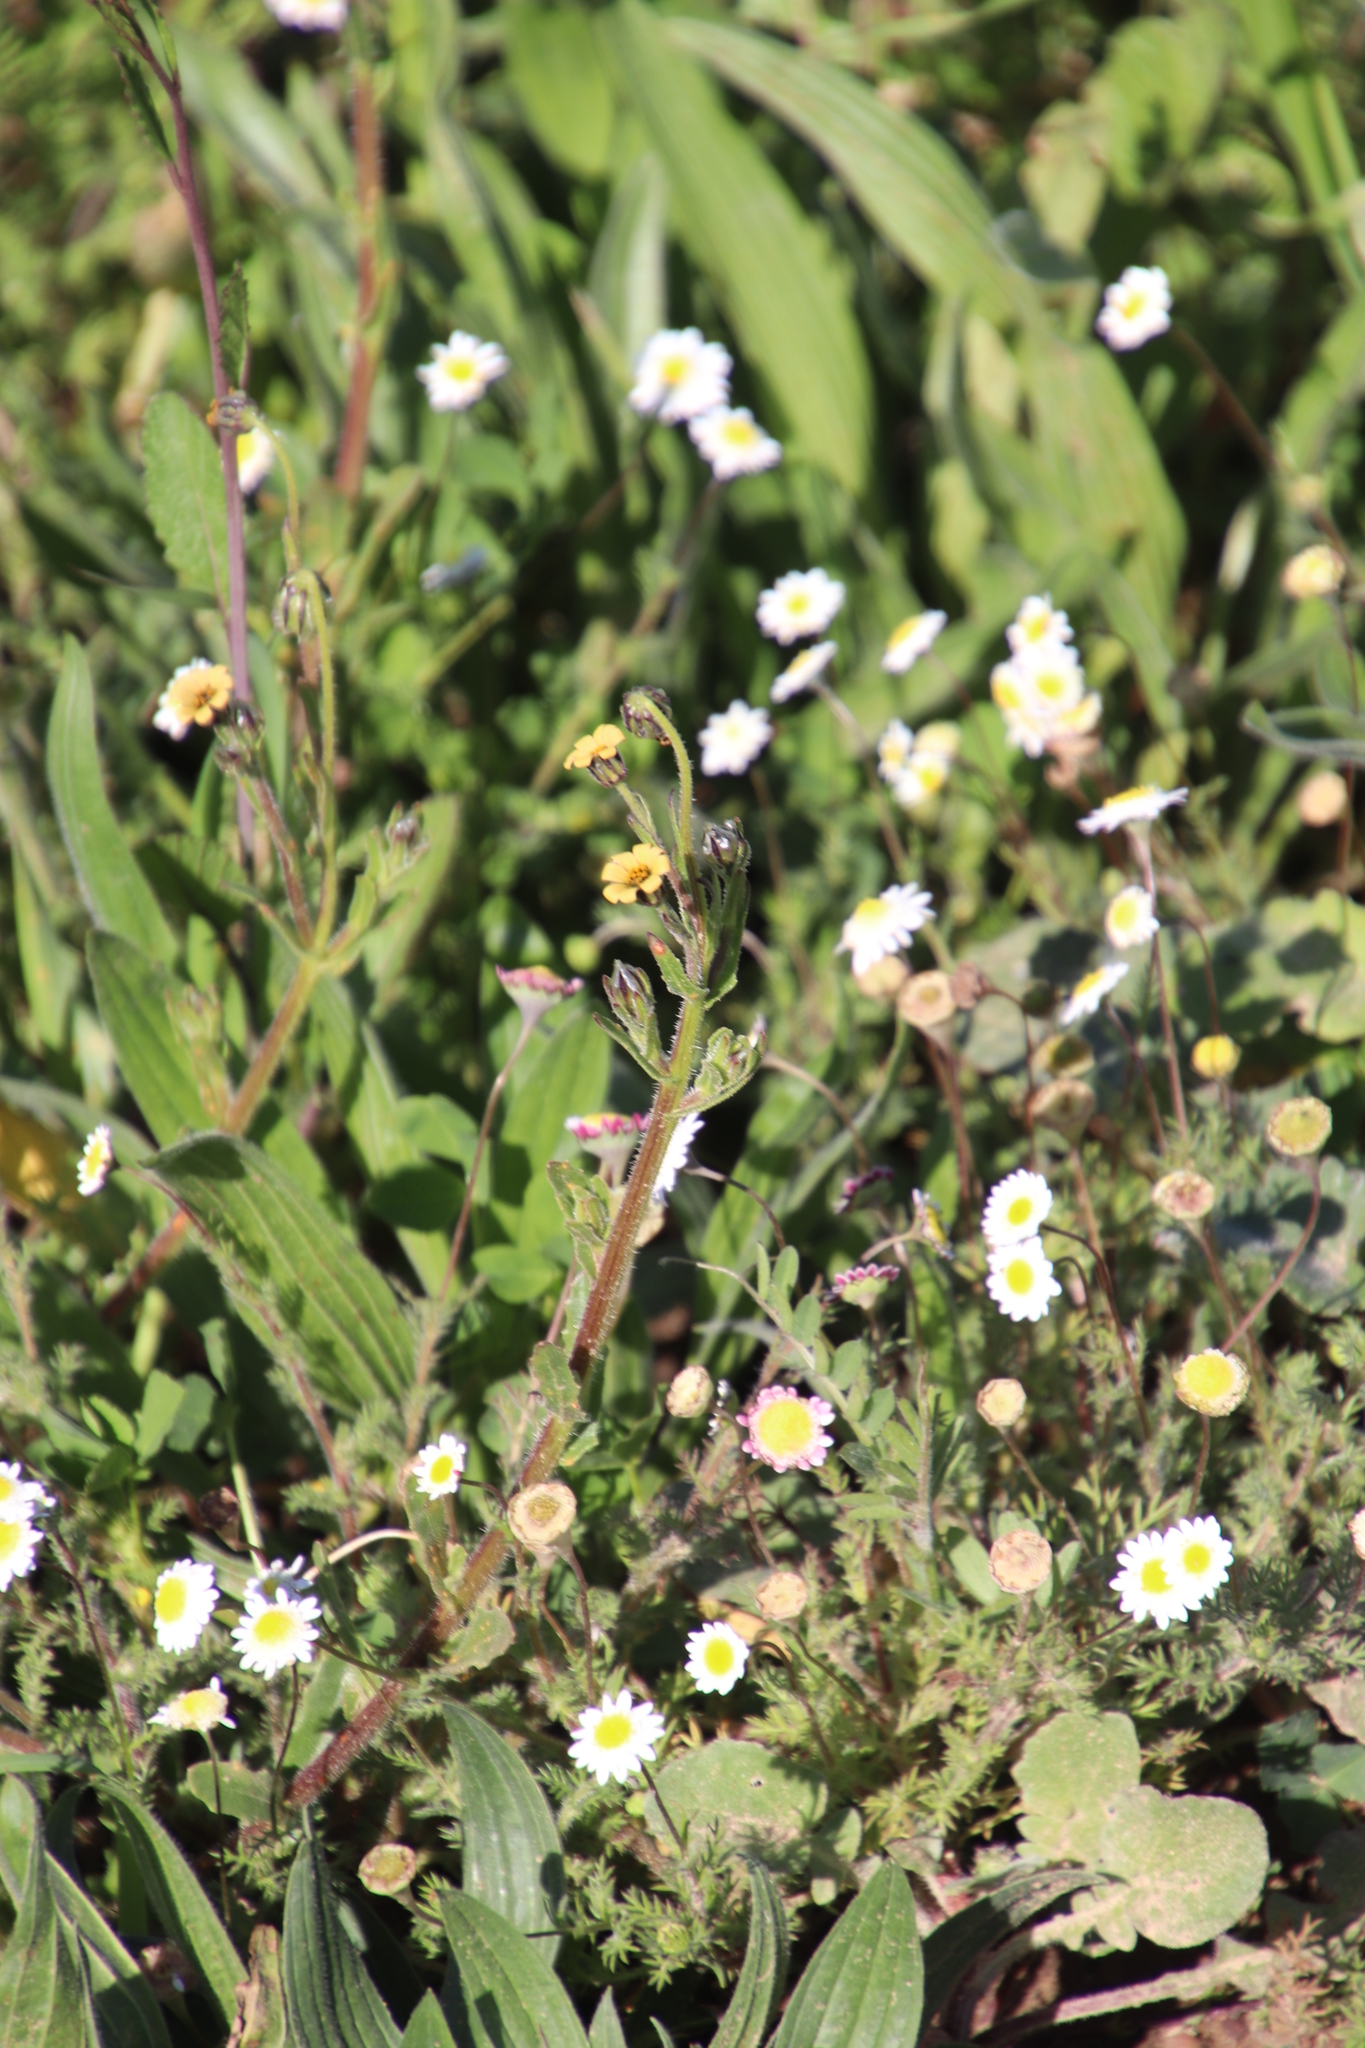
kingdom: Plantae
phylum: Tracheophyta
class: Magnoliopsida
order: Asterales
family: Asteraceae
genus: Osteospermum
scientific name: Osteospermum monstrosum
